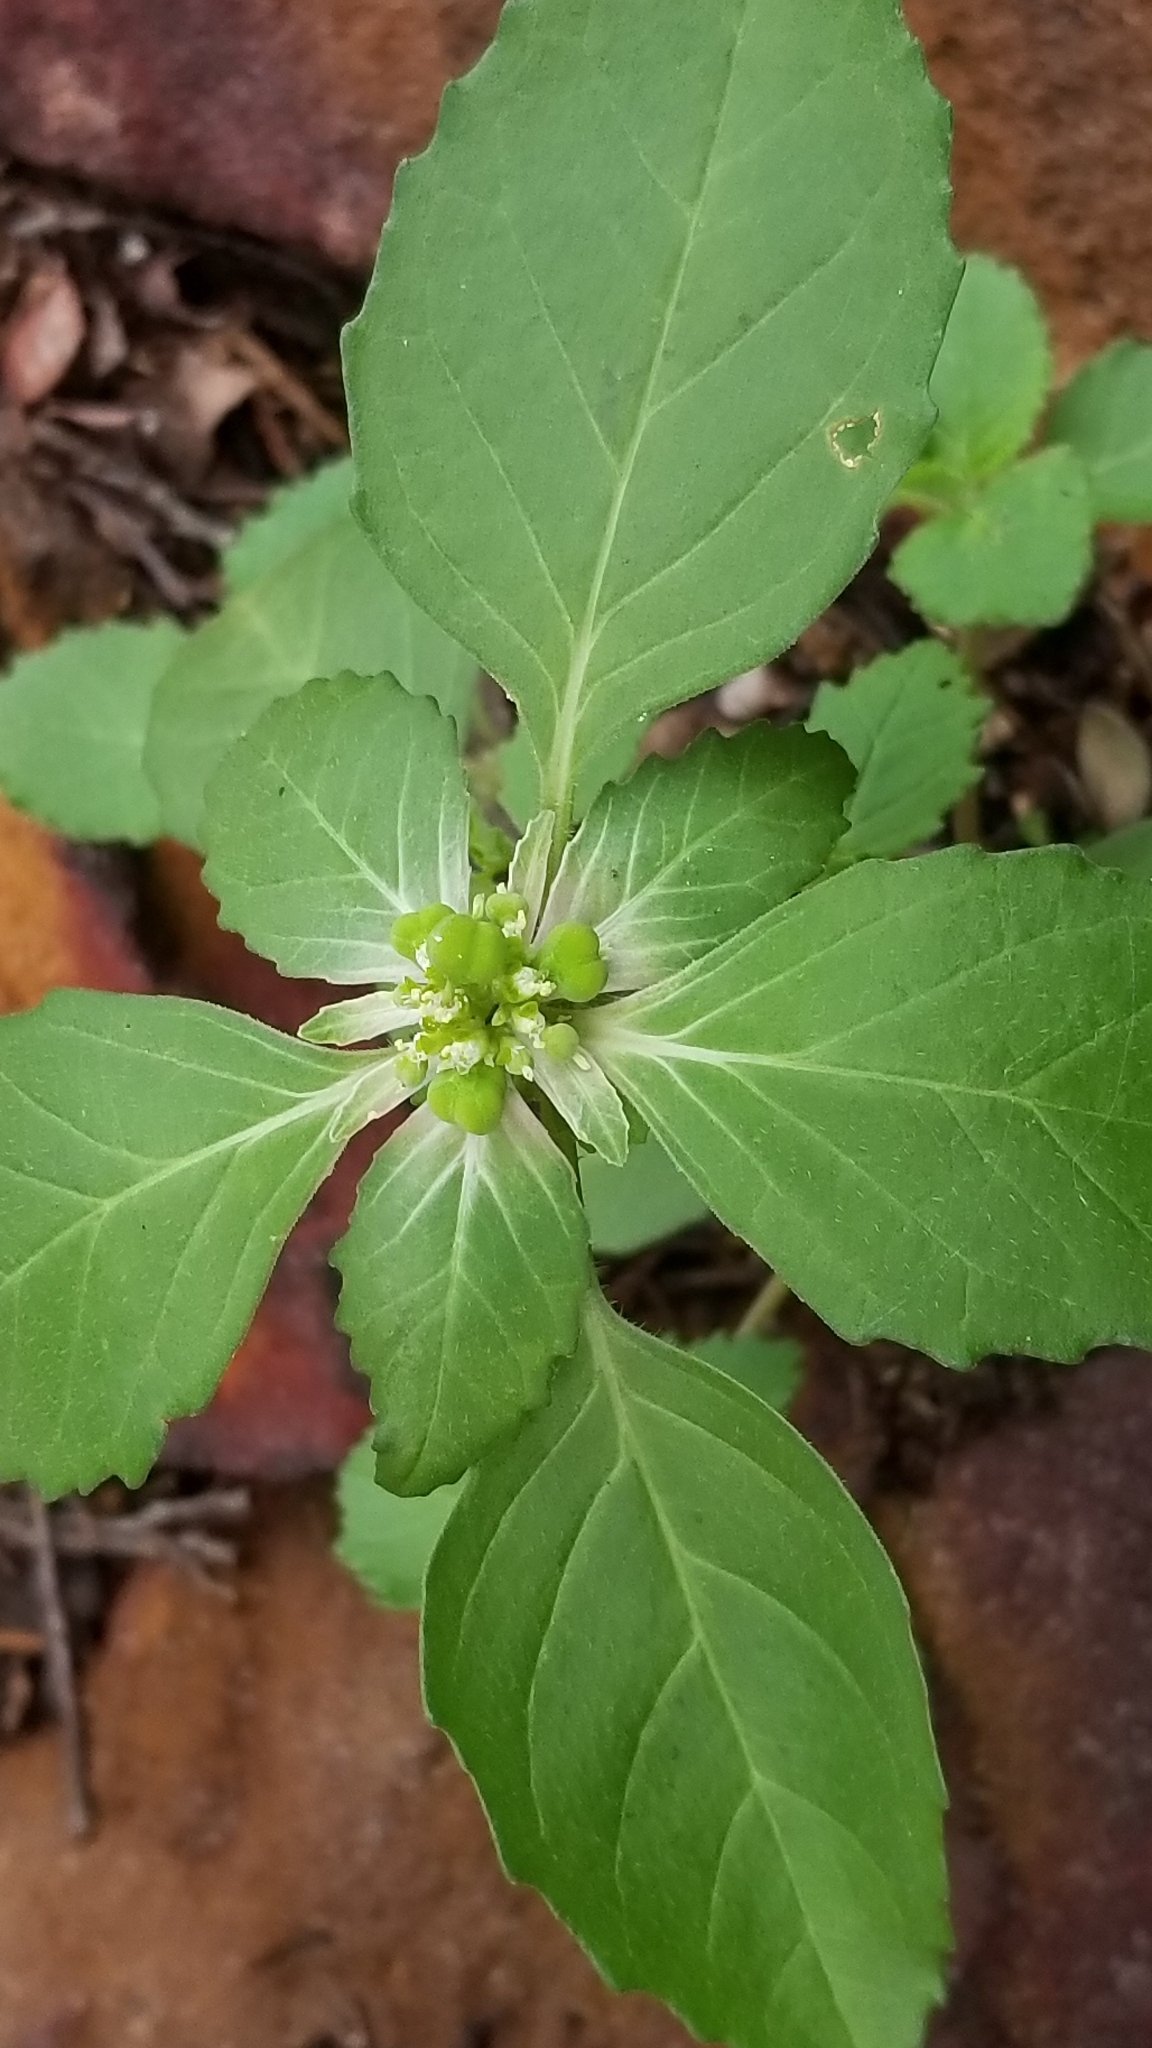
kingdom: Plantae
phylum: Tracheophyta
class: Magnoliopsida
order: Malpighiales
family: Euphorbiaceae
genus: Euphorbia
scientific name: Euphorbia dentata
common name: Dentate spurge
